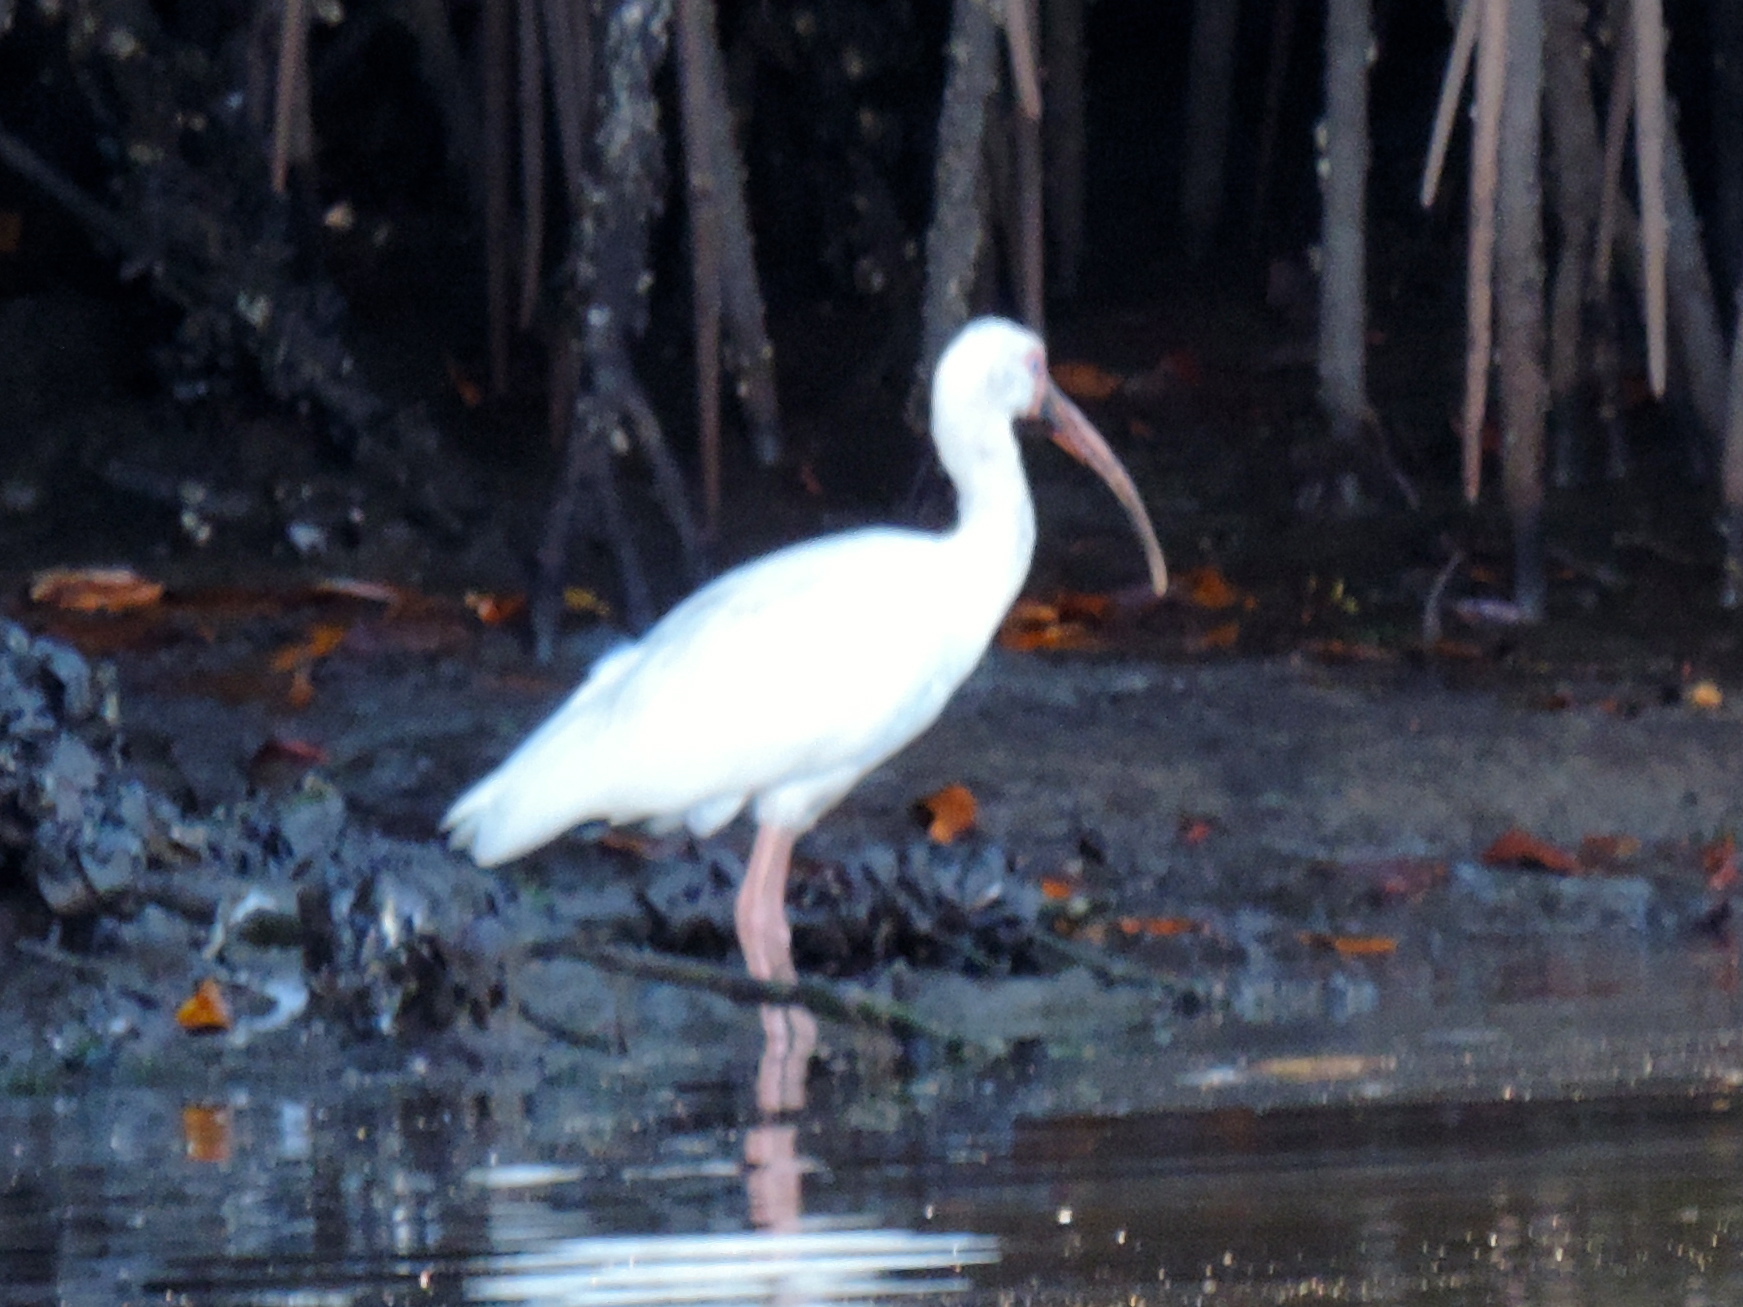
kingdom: Animalia
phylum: Chordata
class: Aves
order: Pelecaniformes
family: Threskiornithidae
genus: Eudocimus
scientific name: Eudocimus albus
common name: White ibis
